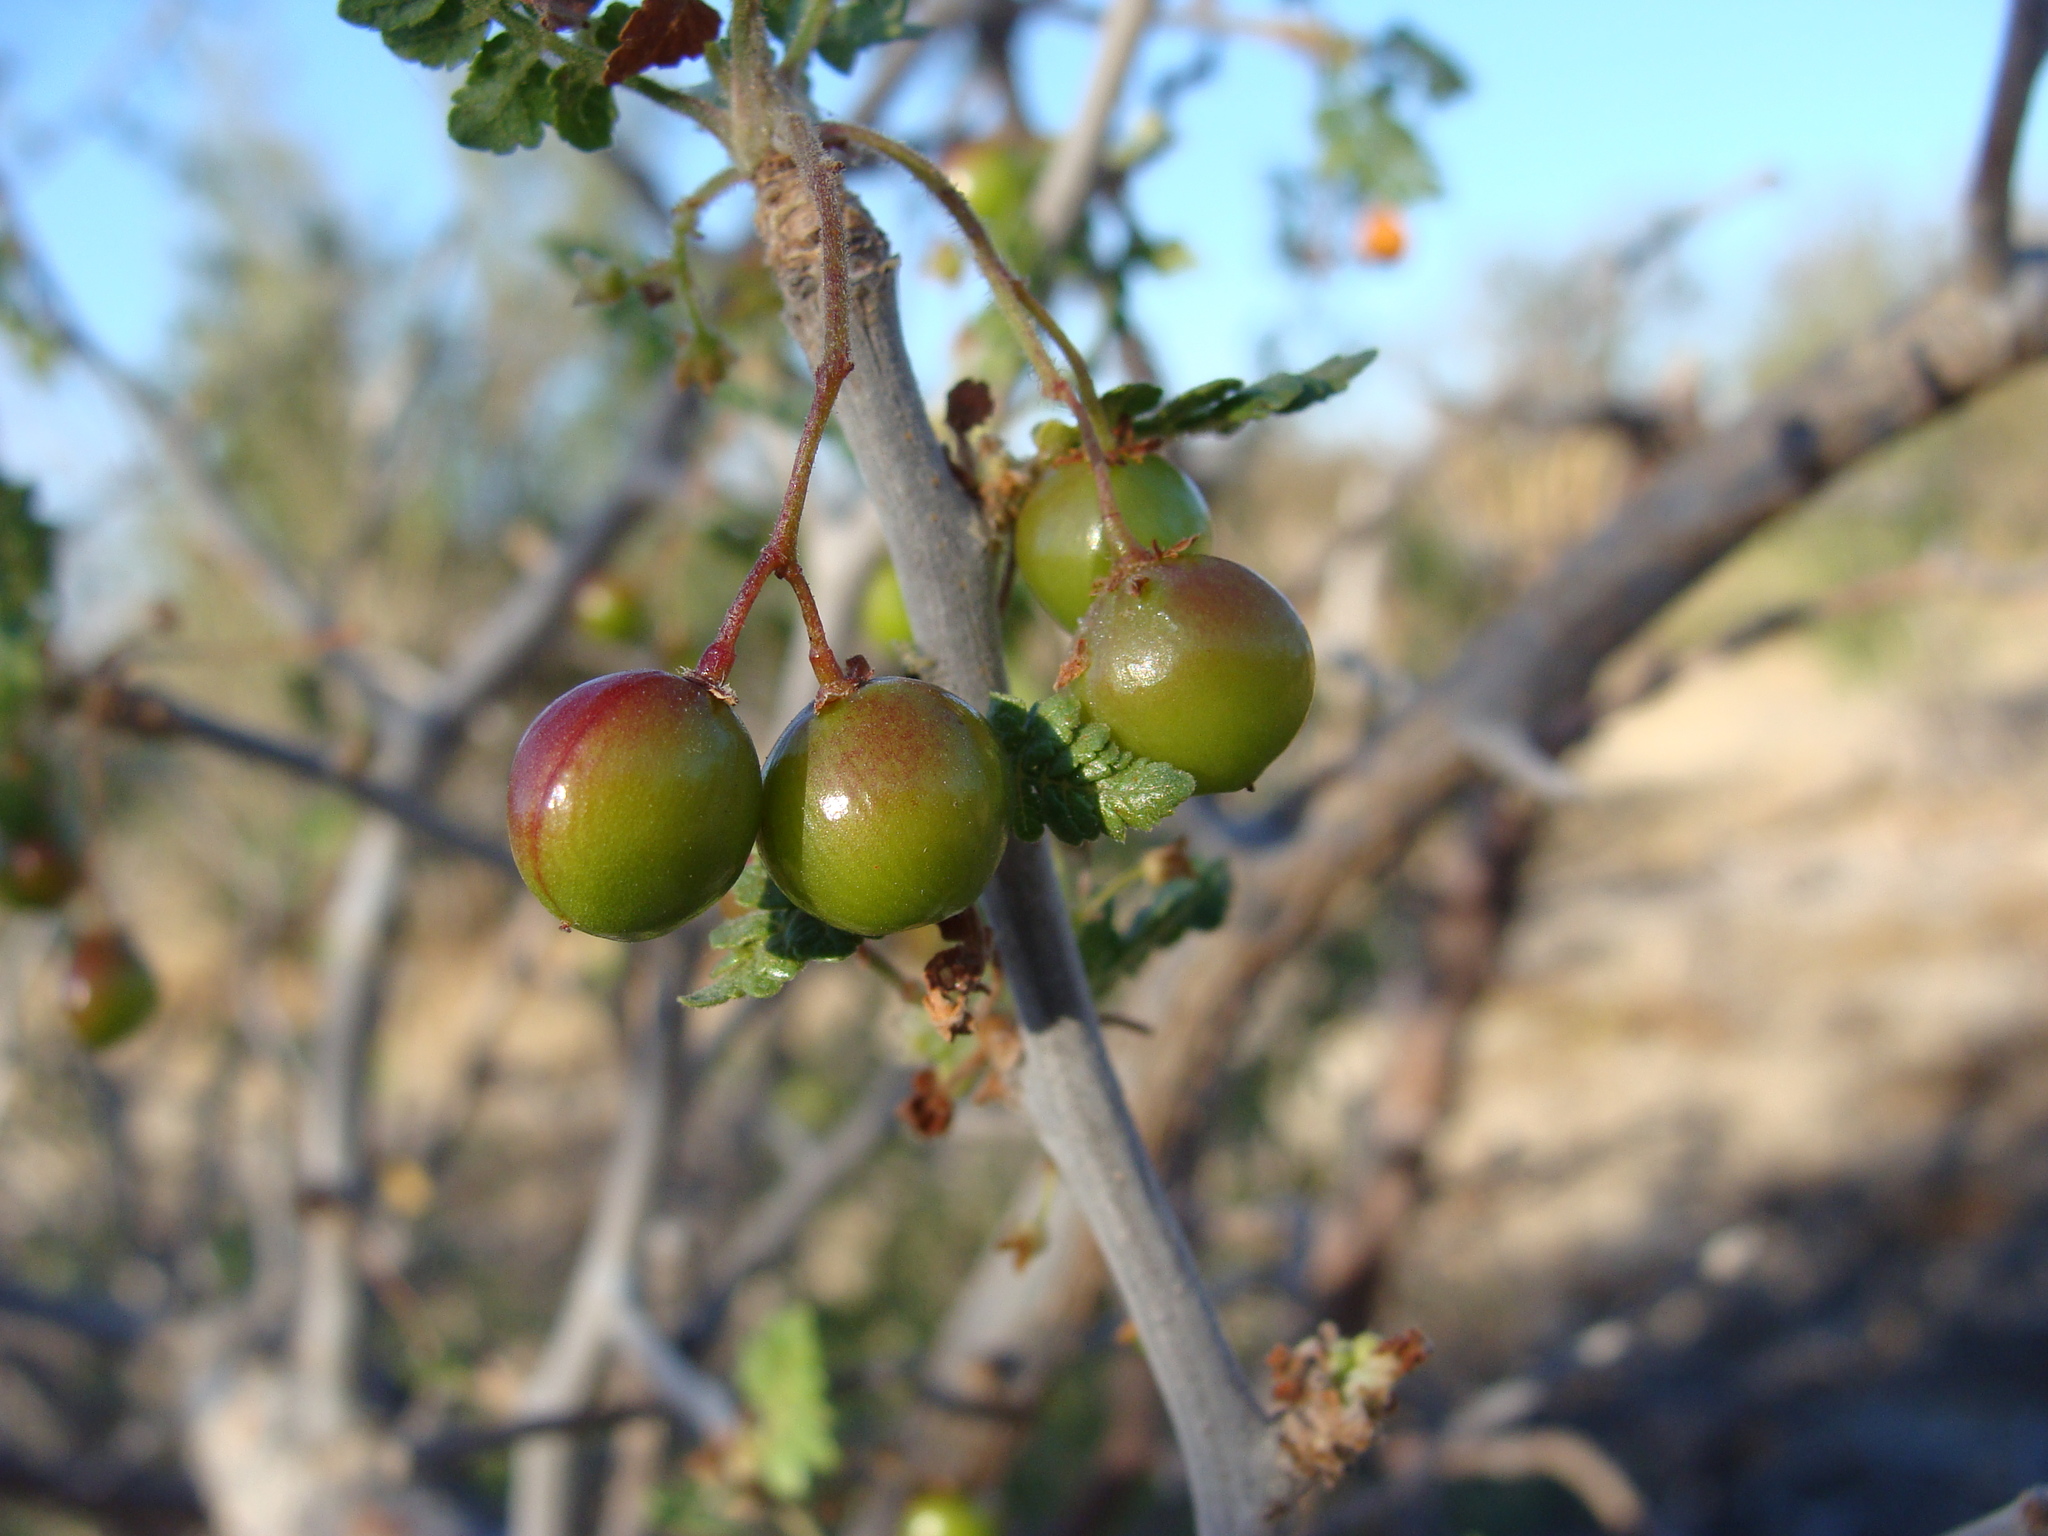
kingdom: Plantae
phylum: Tracheophyta
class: Magnoliopsida
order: Sapindales
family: Burseraceae
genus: Bursera
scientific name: Bursera littoralis
